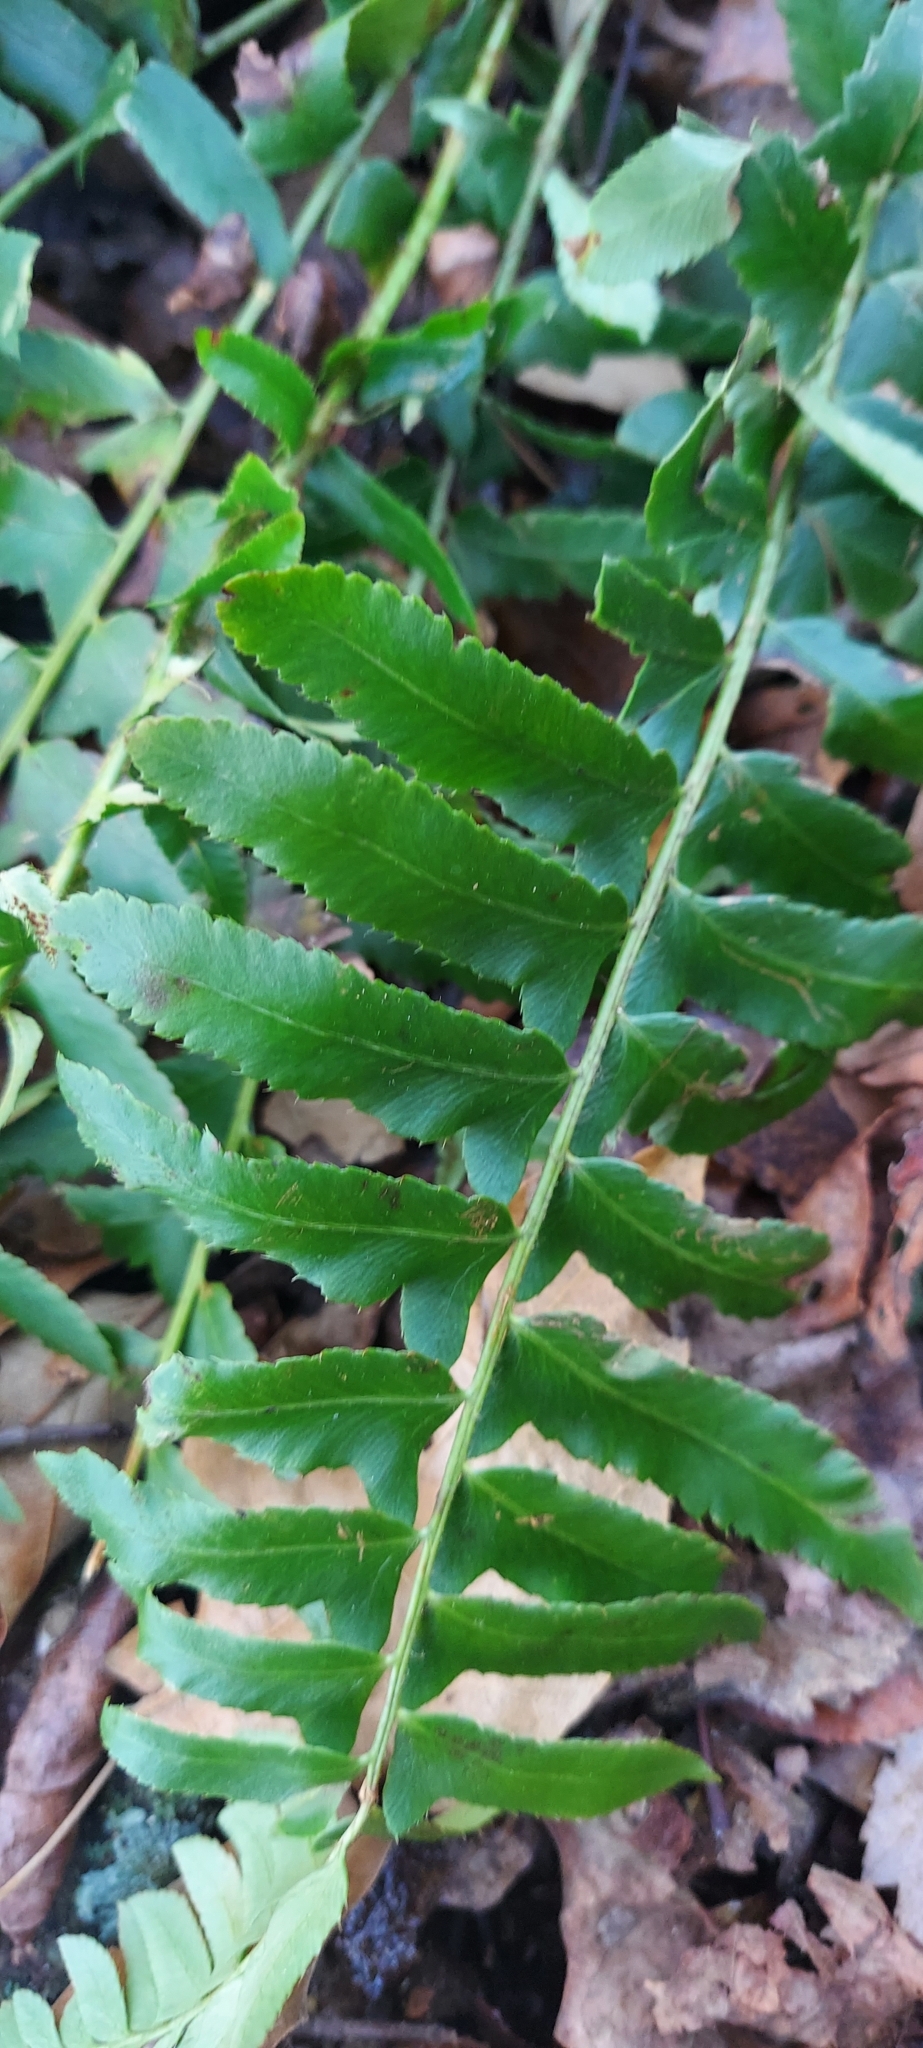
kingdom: Plantae
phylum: Tracheophyta
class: Polypodiopsida
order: Polypodiales
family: Dryopteridaceae
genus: Polystichum
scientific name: Polystichum acrostichoides
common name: Christmas fern
